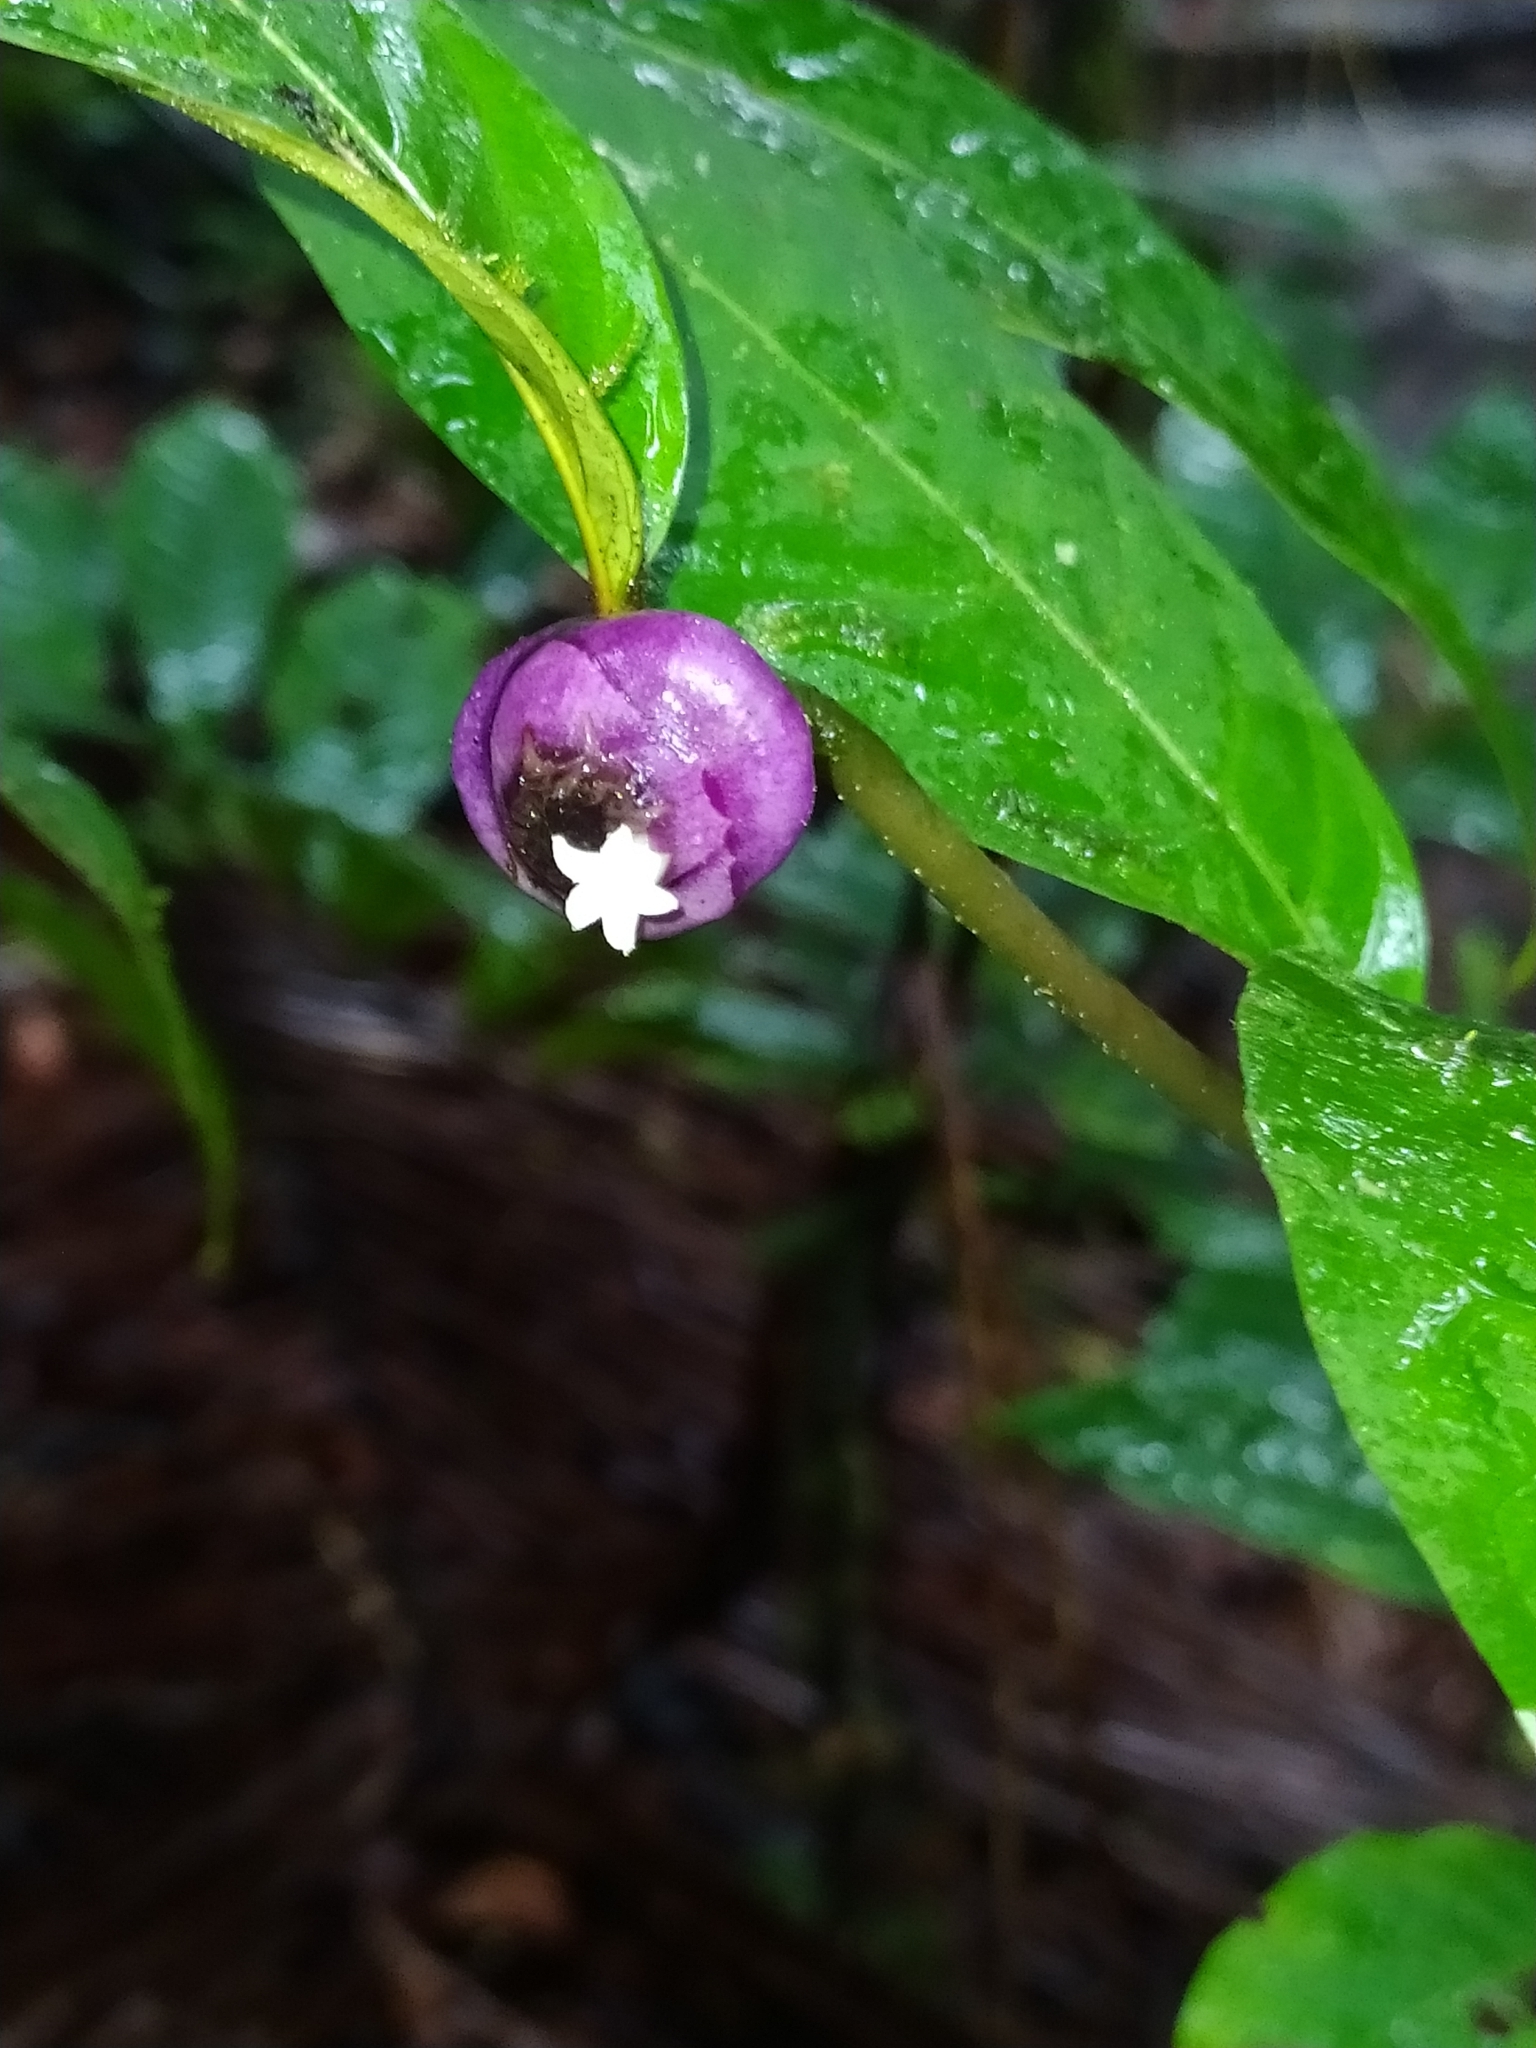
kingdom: Plantae
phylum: Tracheophyta
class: Magnoliopsida
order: Gentianales
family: Rubiaceae
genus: Palicourea
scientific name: Palicourea apoda
